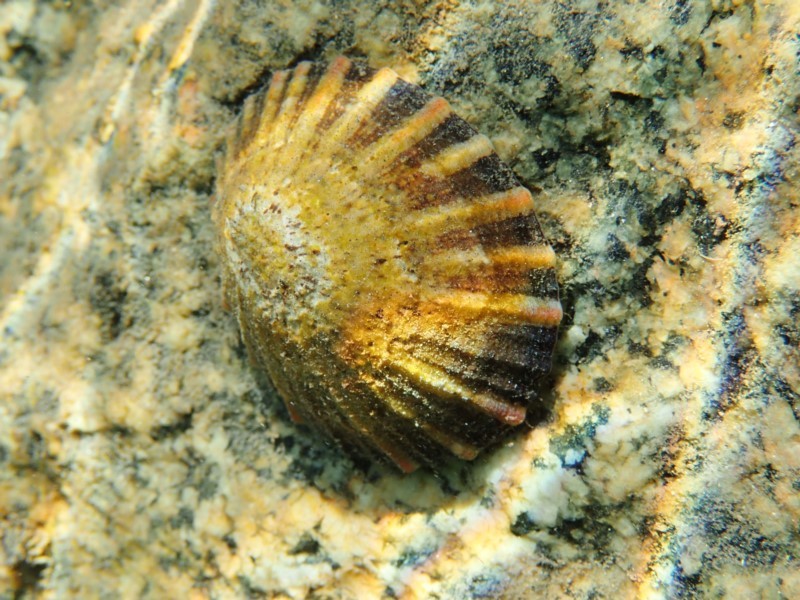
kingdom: Animalia
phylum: Mollusca
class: Gastropoda
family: Nacellidae
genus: Cellana
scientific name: Cellana tramoserica
